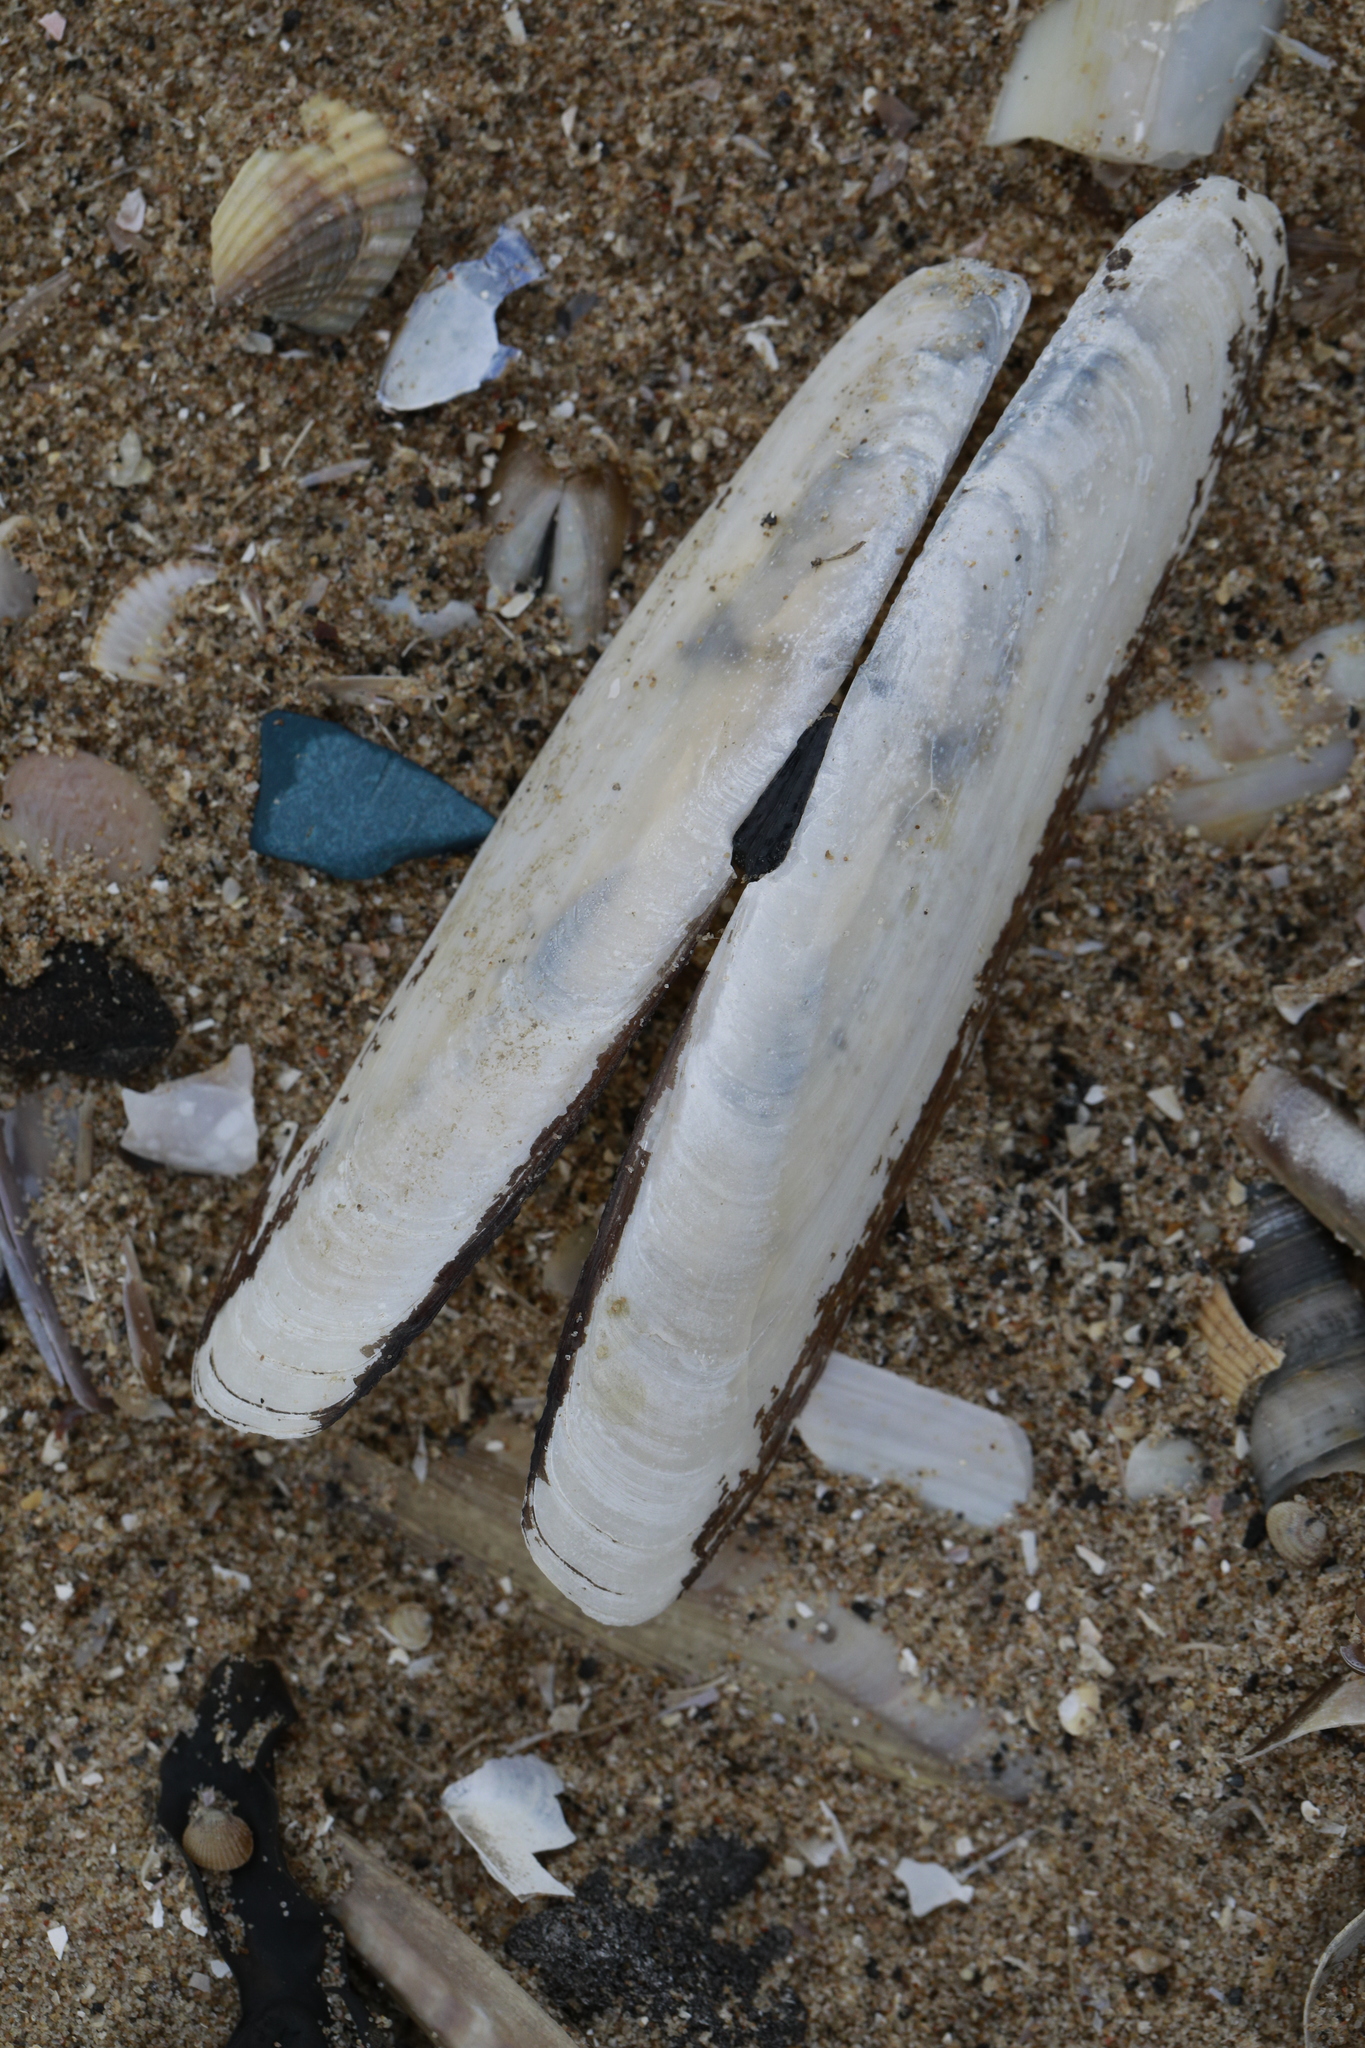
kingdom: Animalia
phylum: Mollusca
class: Bivalvia
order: Adapedonta
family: Pharidae
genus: Pharus
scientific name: Pharus legumen
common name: Bean razor clam
